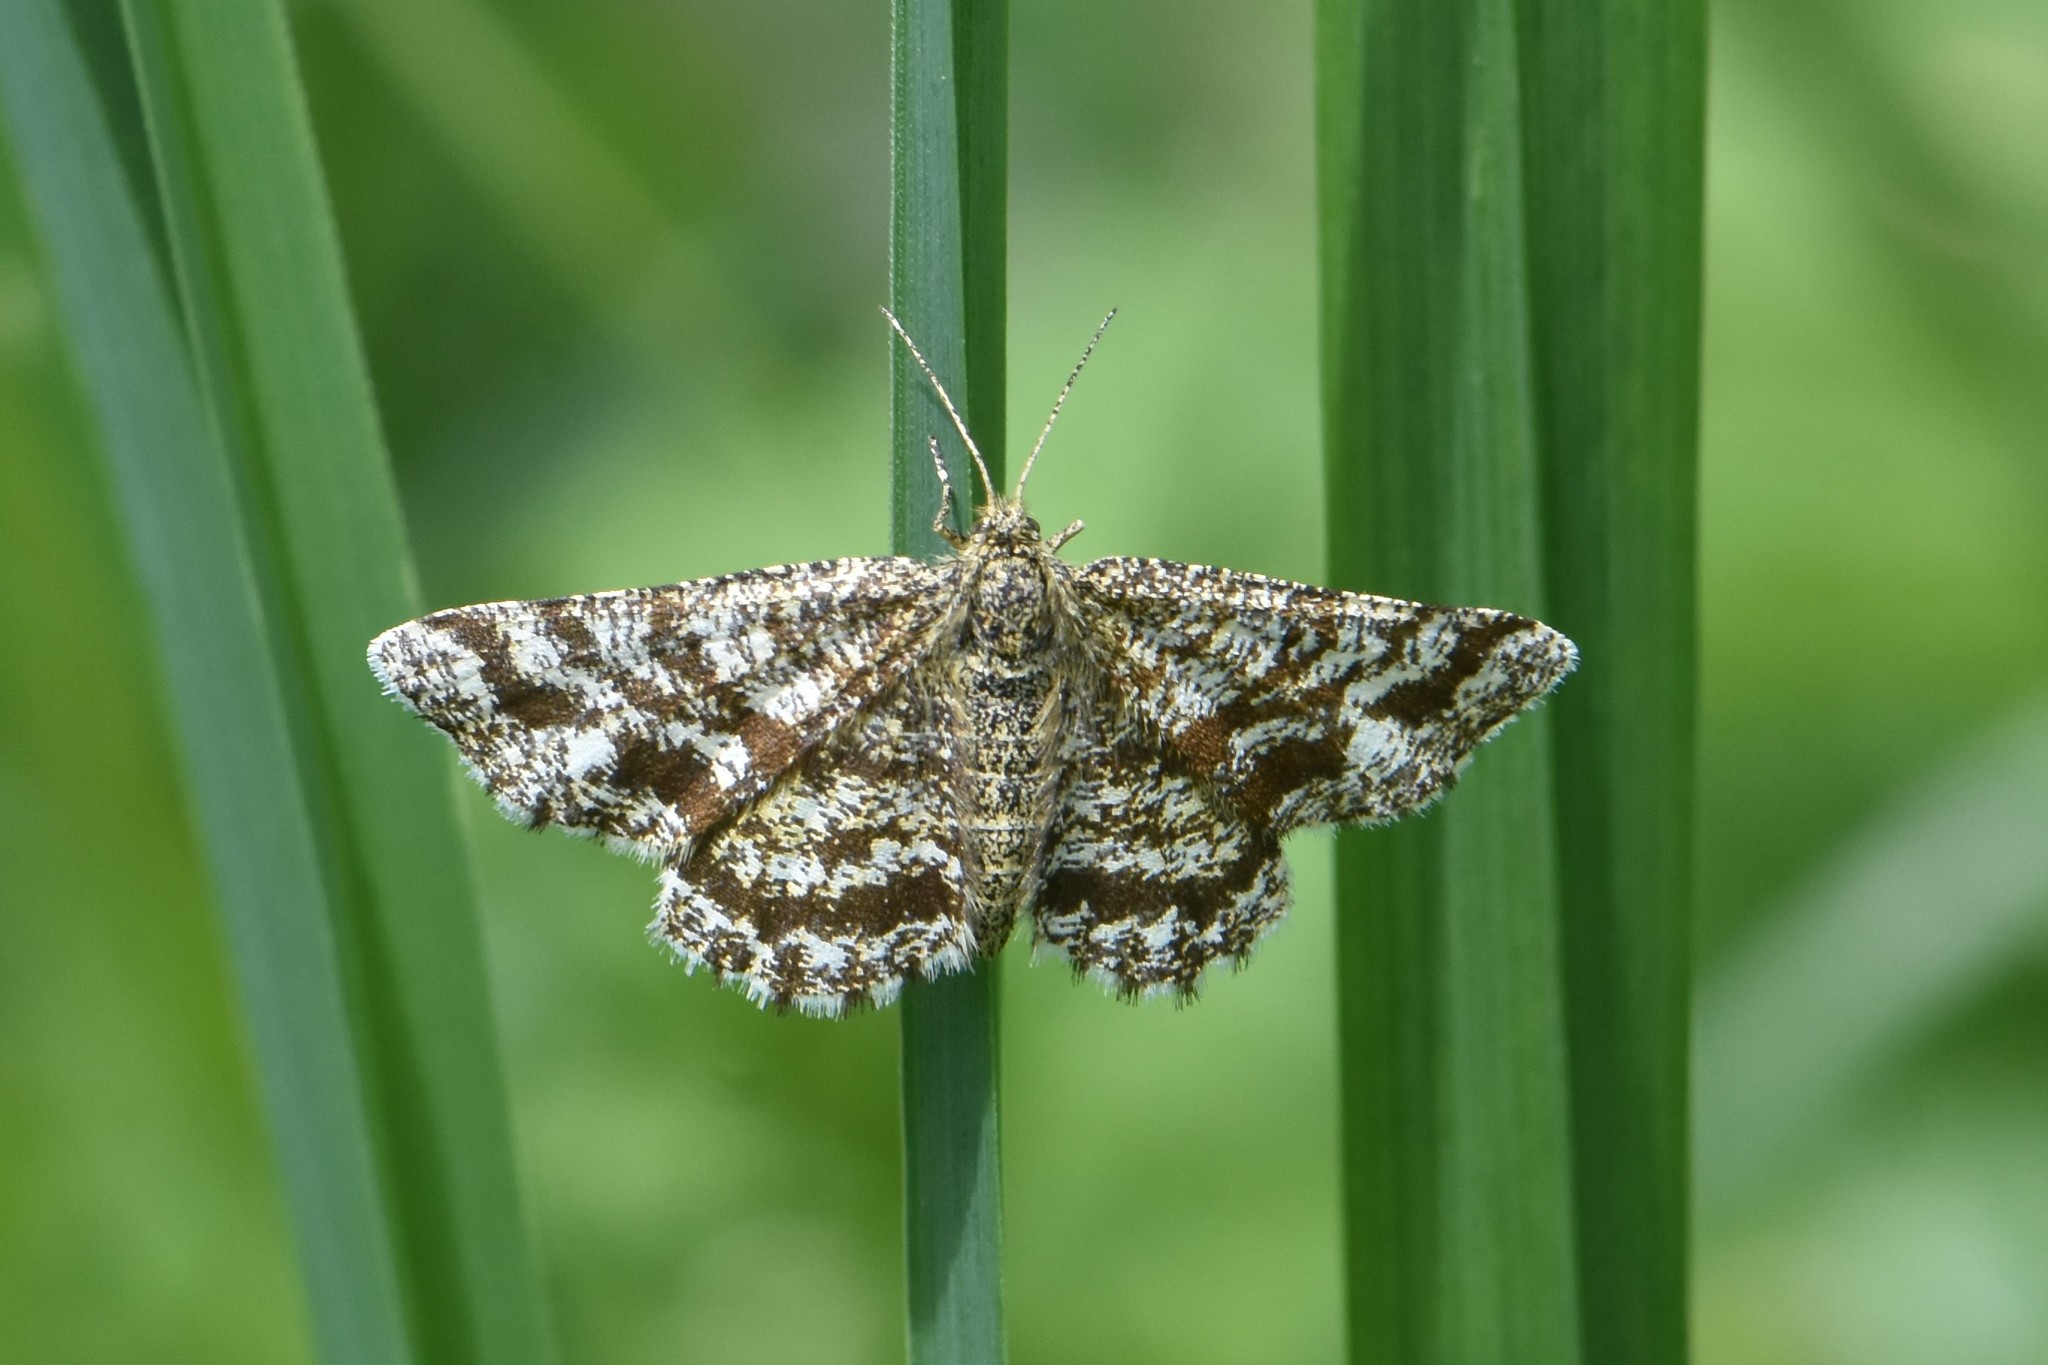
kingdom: Animalia
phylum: Arthropoda
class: Insecta
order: Lepidoptera
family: Geometridae
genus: Ematurga
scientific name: Ematurga atomaria
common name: Common heath
